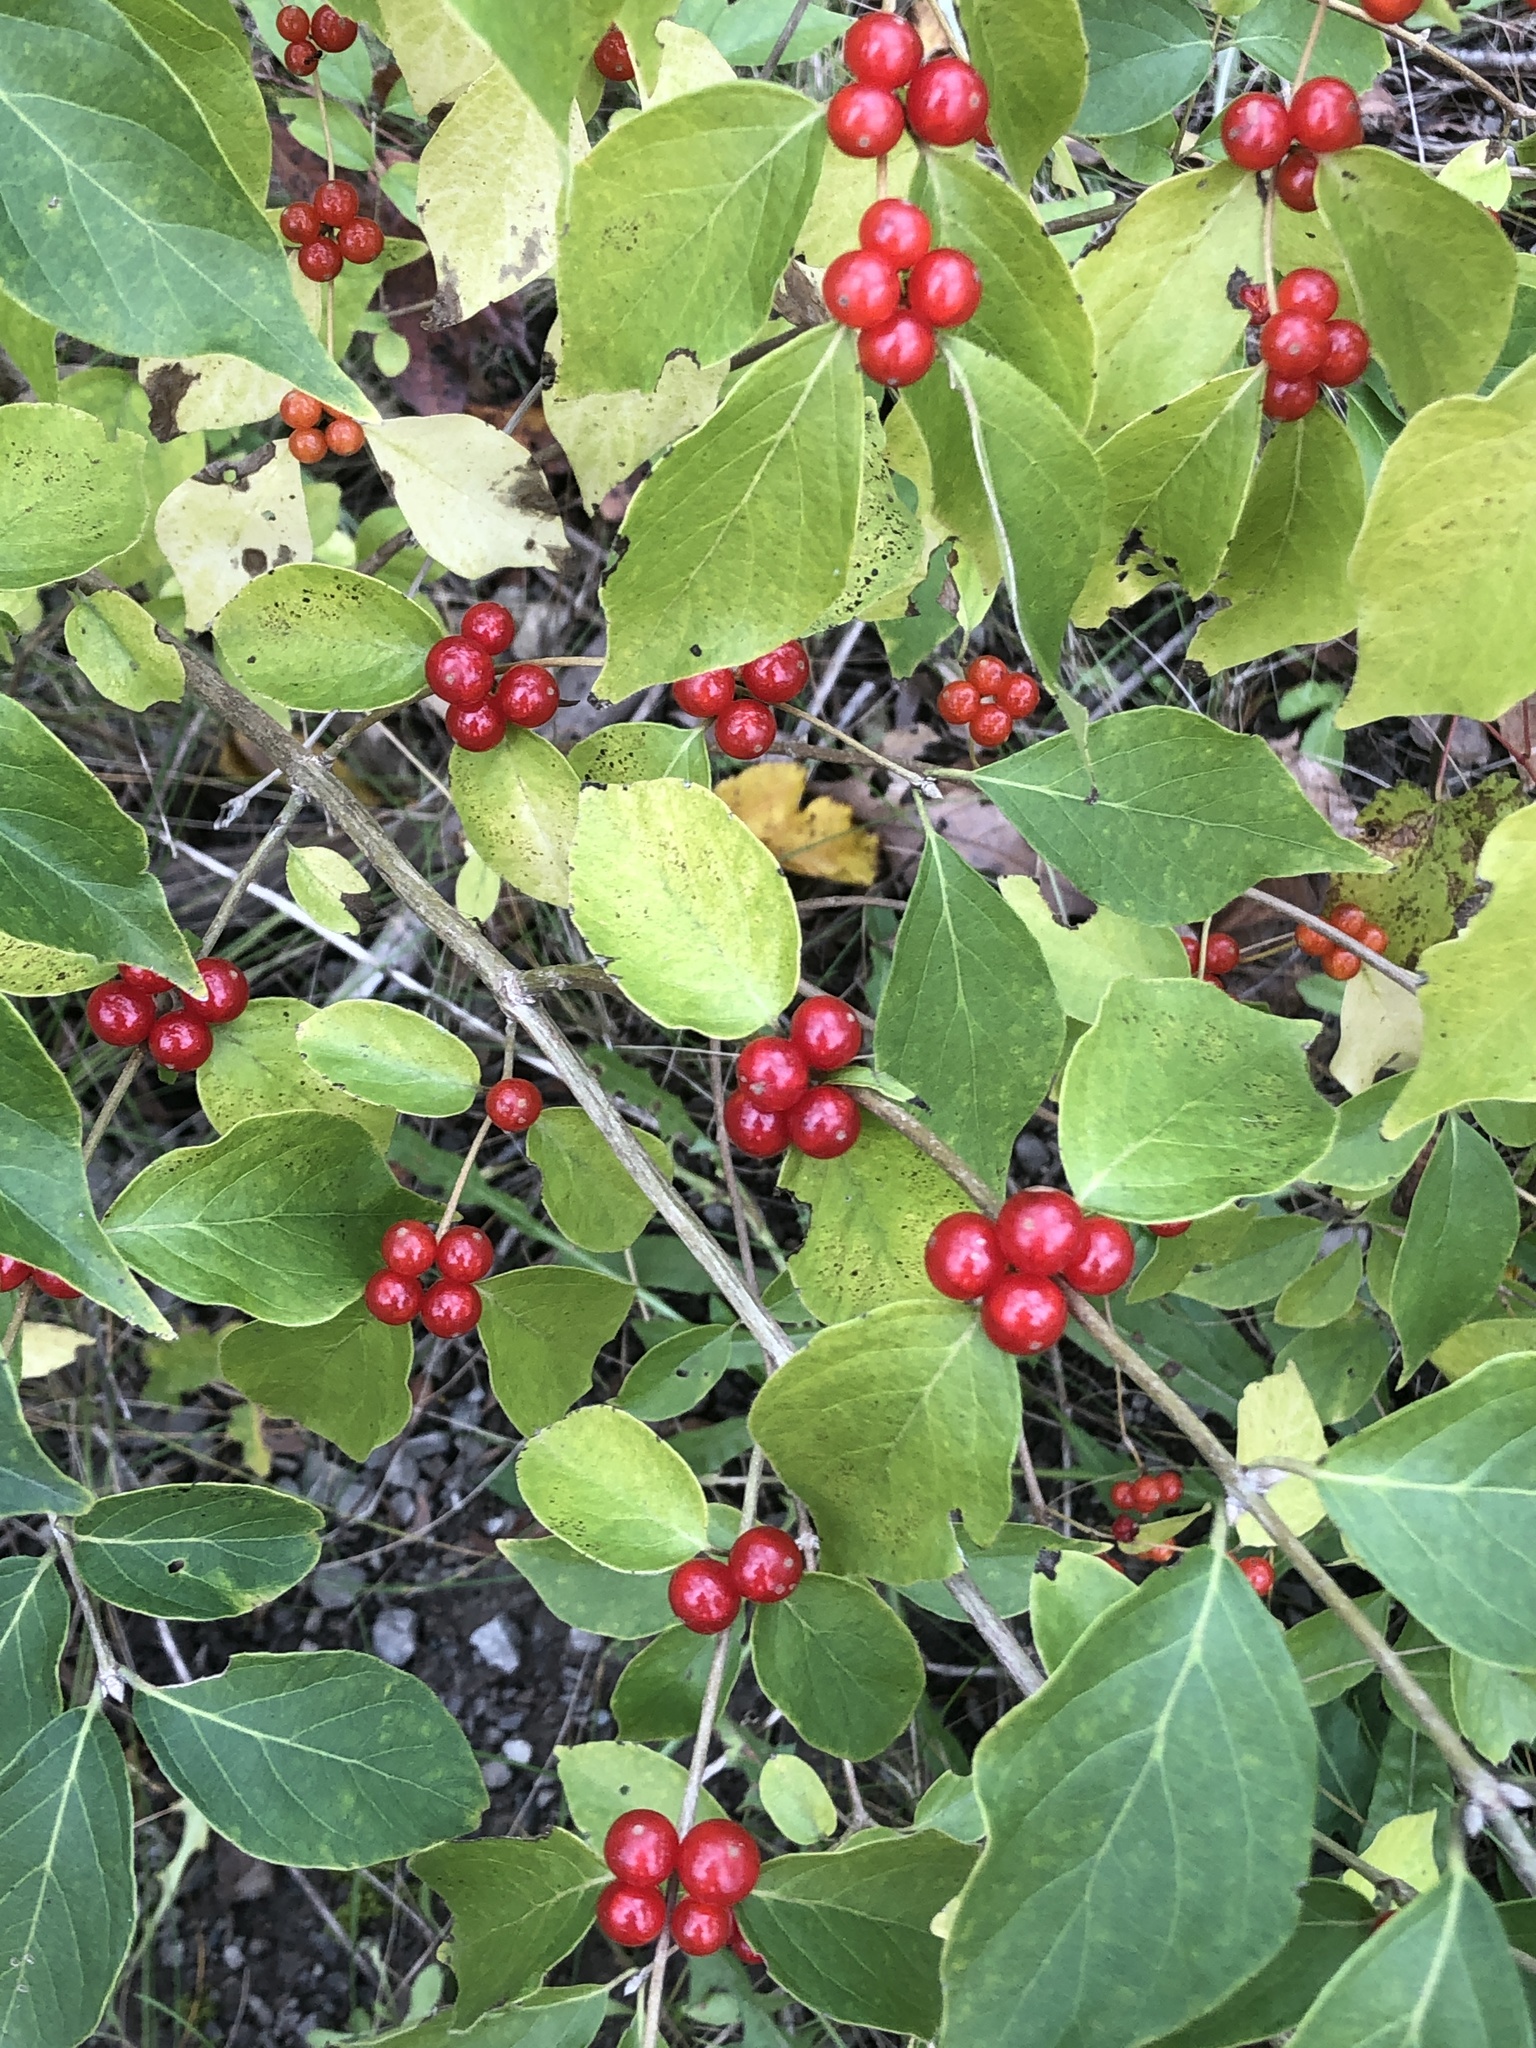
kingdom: Plantae
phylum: Tracheophyta
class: Magnoliopsida
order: Dipsacales
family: Caprifoliaceae
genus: Lonicera
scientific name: Lonicera maackii
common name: Amur honeysuckle
